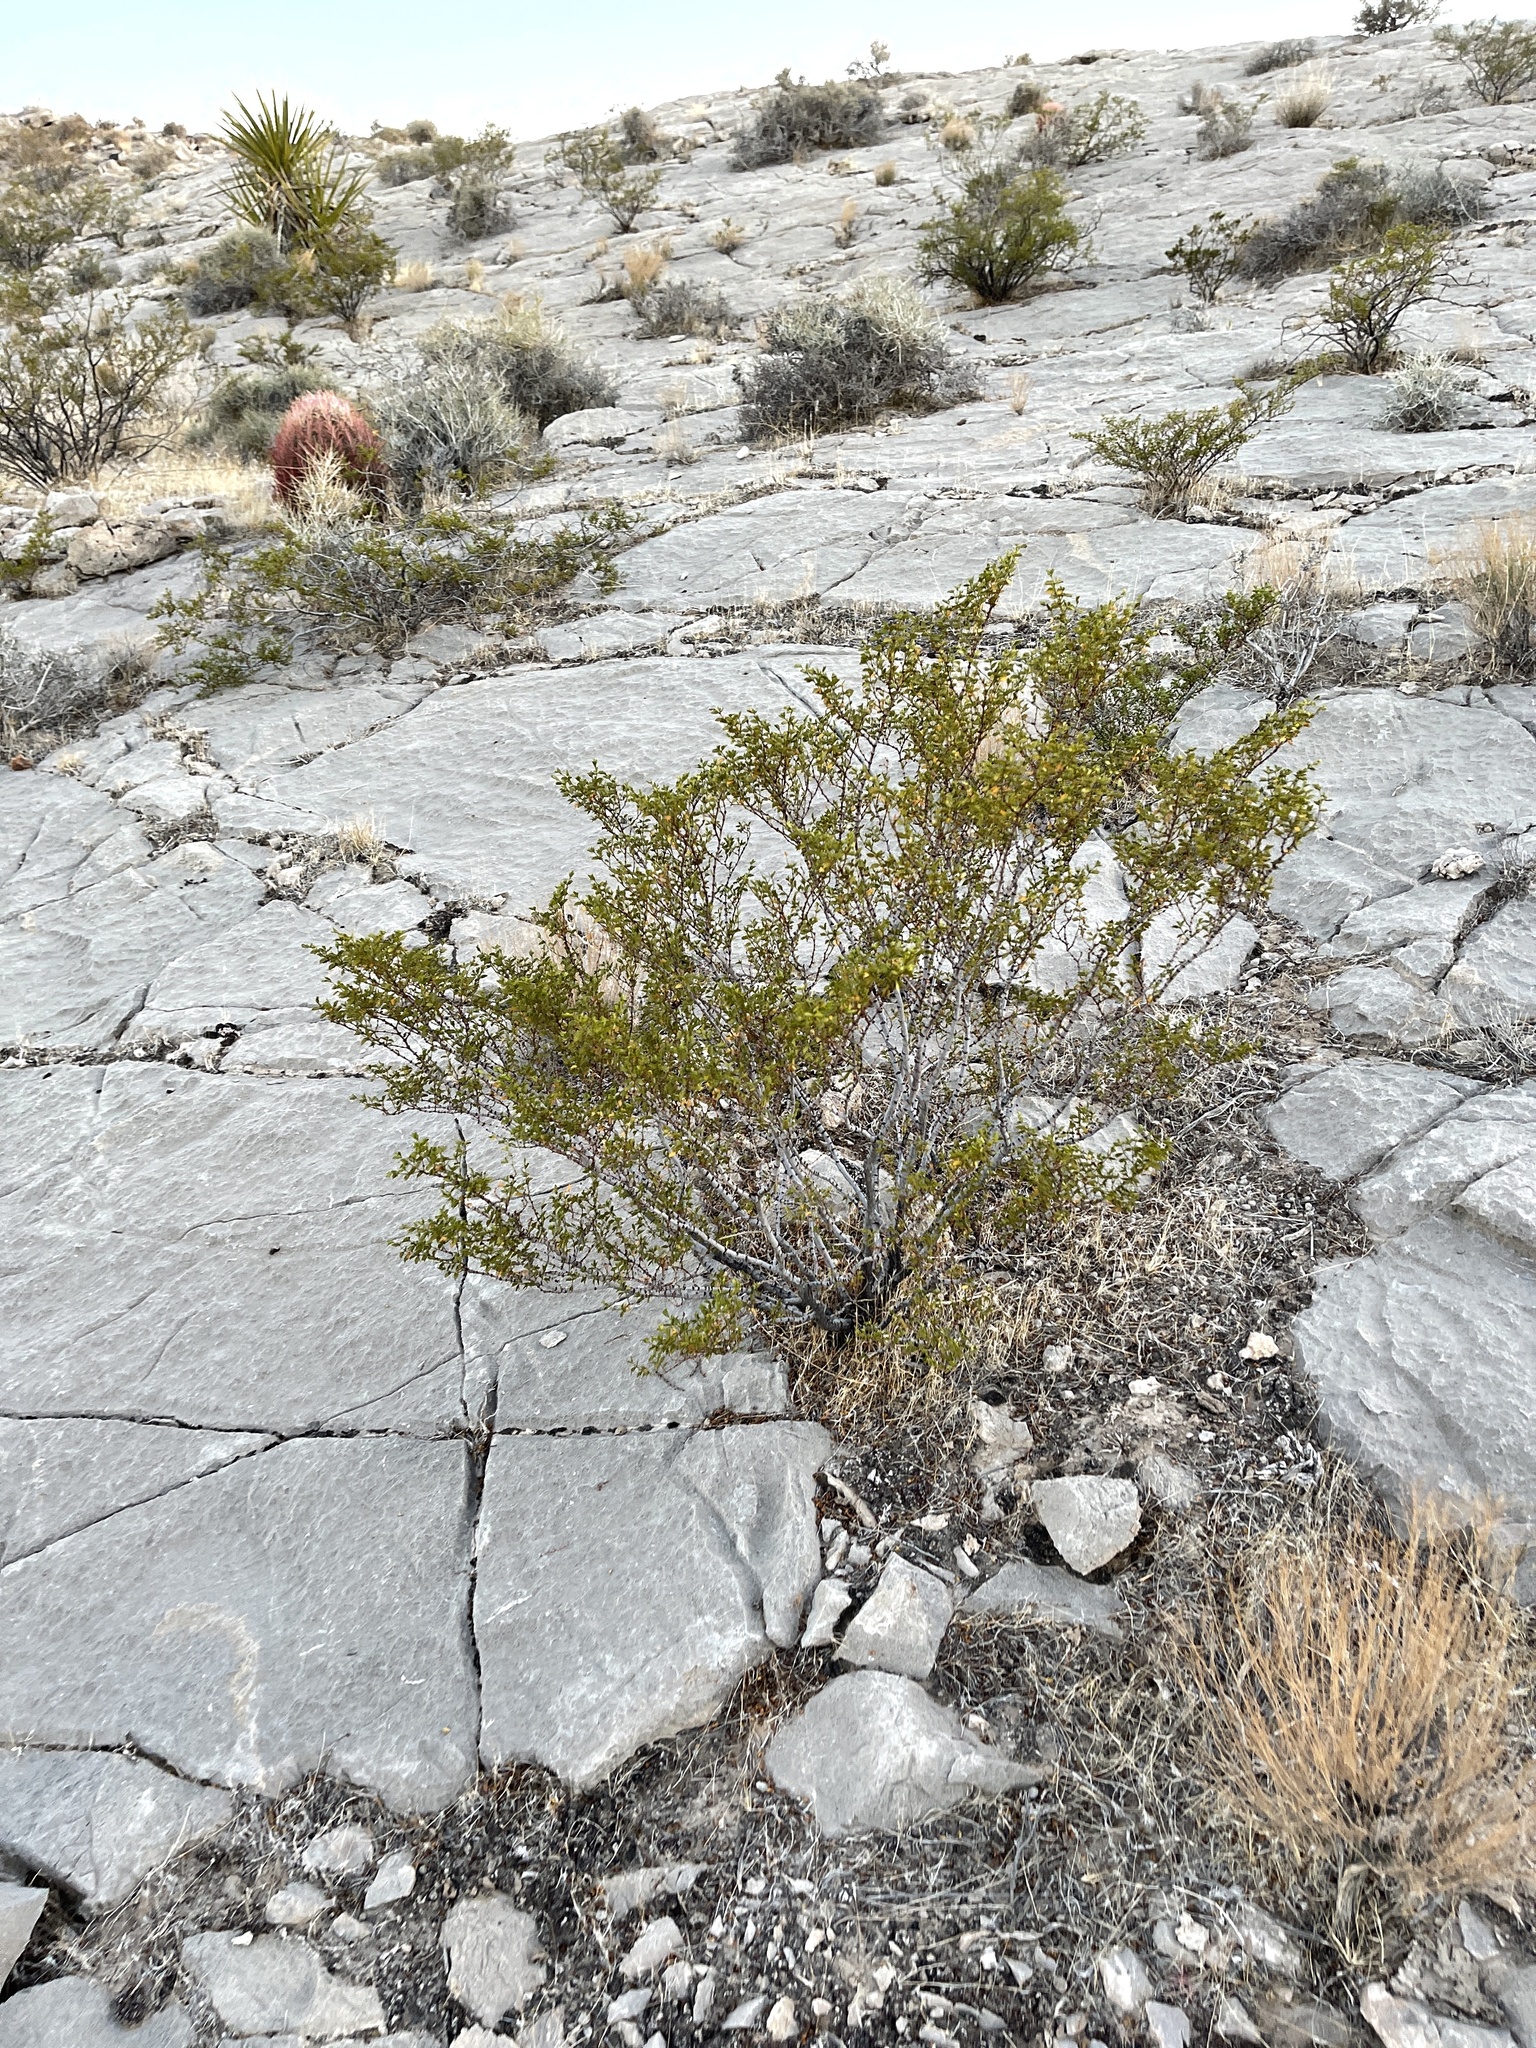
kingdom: Plantae
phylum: Tracheophyta
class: Magnoliopsida
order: Zygophyllales
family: Zygophyllaceae
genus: Larrea
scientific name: Larrea tridentata
